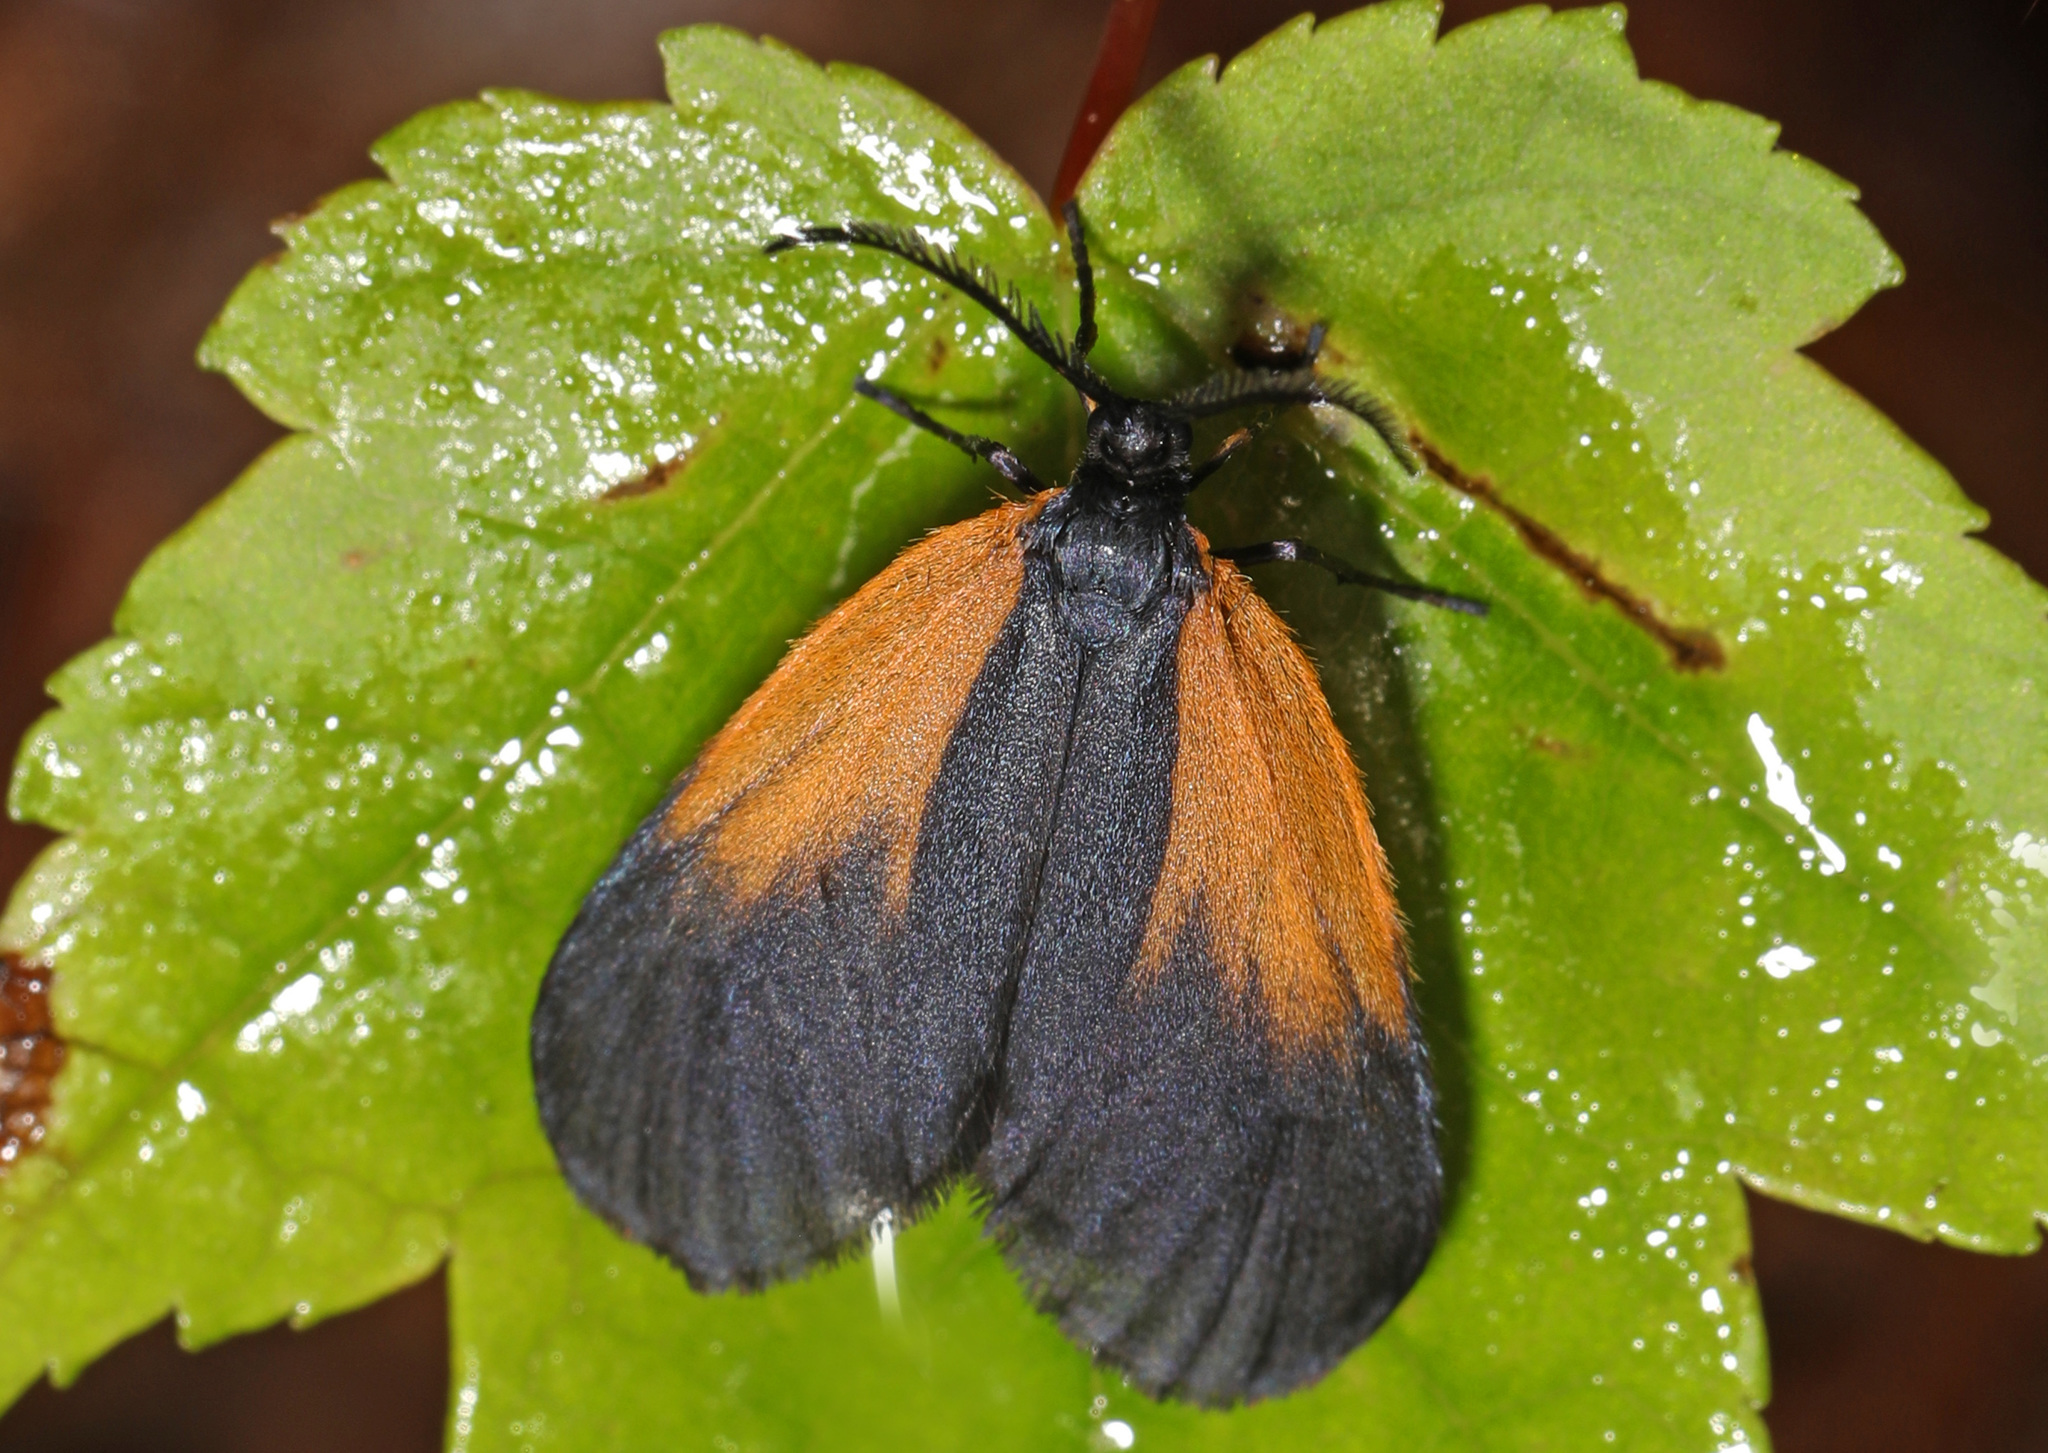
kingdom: Animalia
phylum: Arthropoda
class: Insecta
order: Lepidoptera
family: Zygaenidae
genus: Malthaca
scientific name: Malthaca dimidiata
